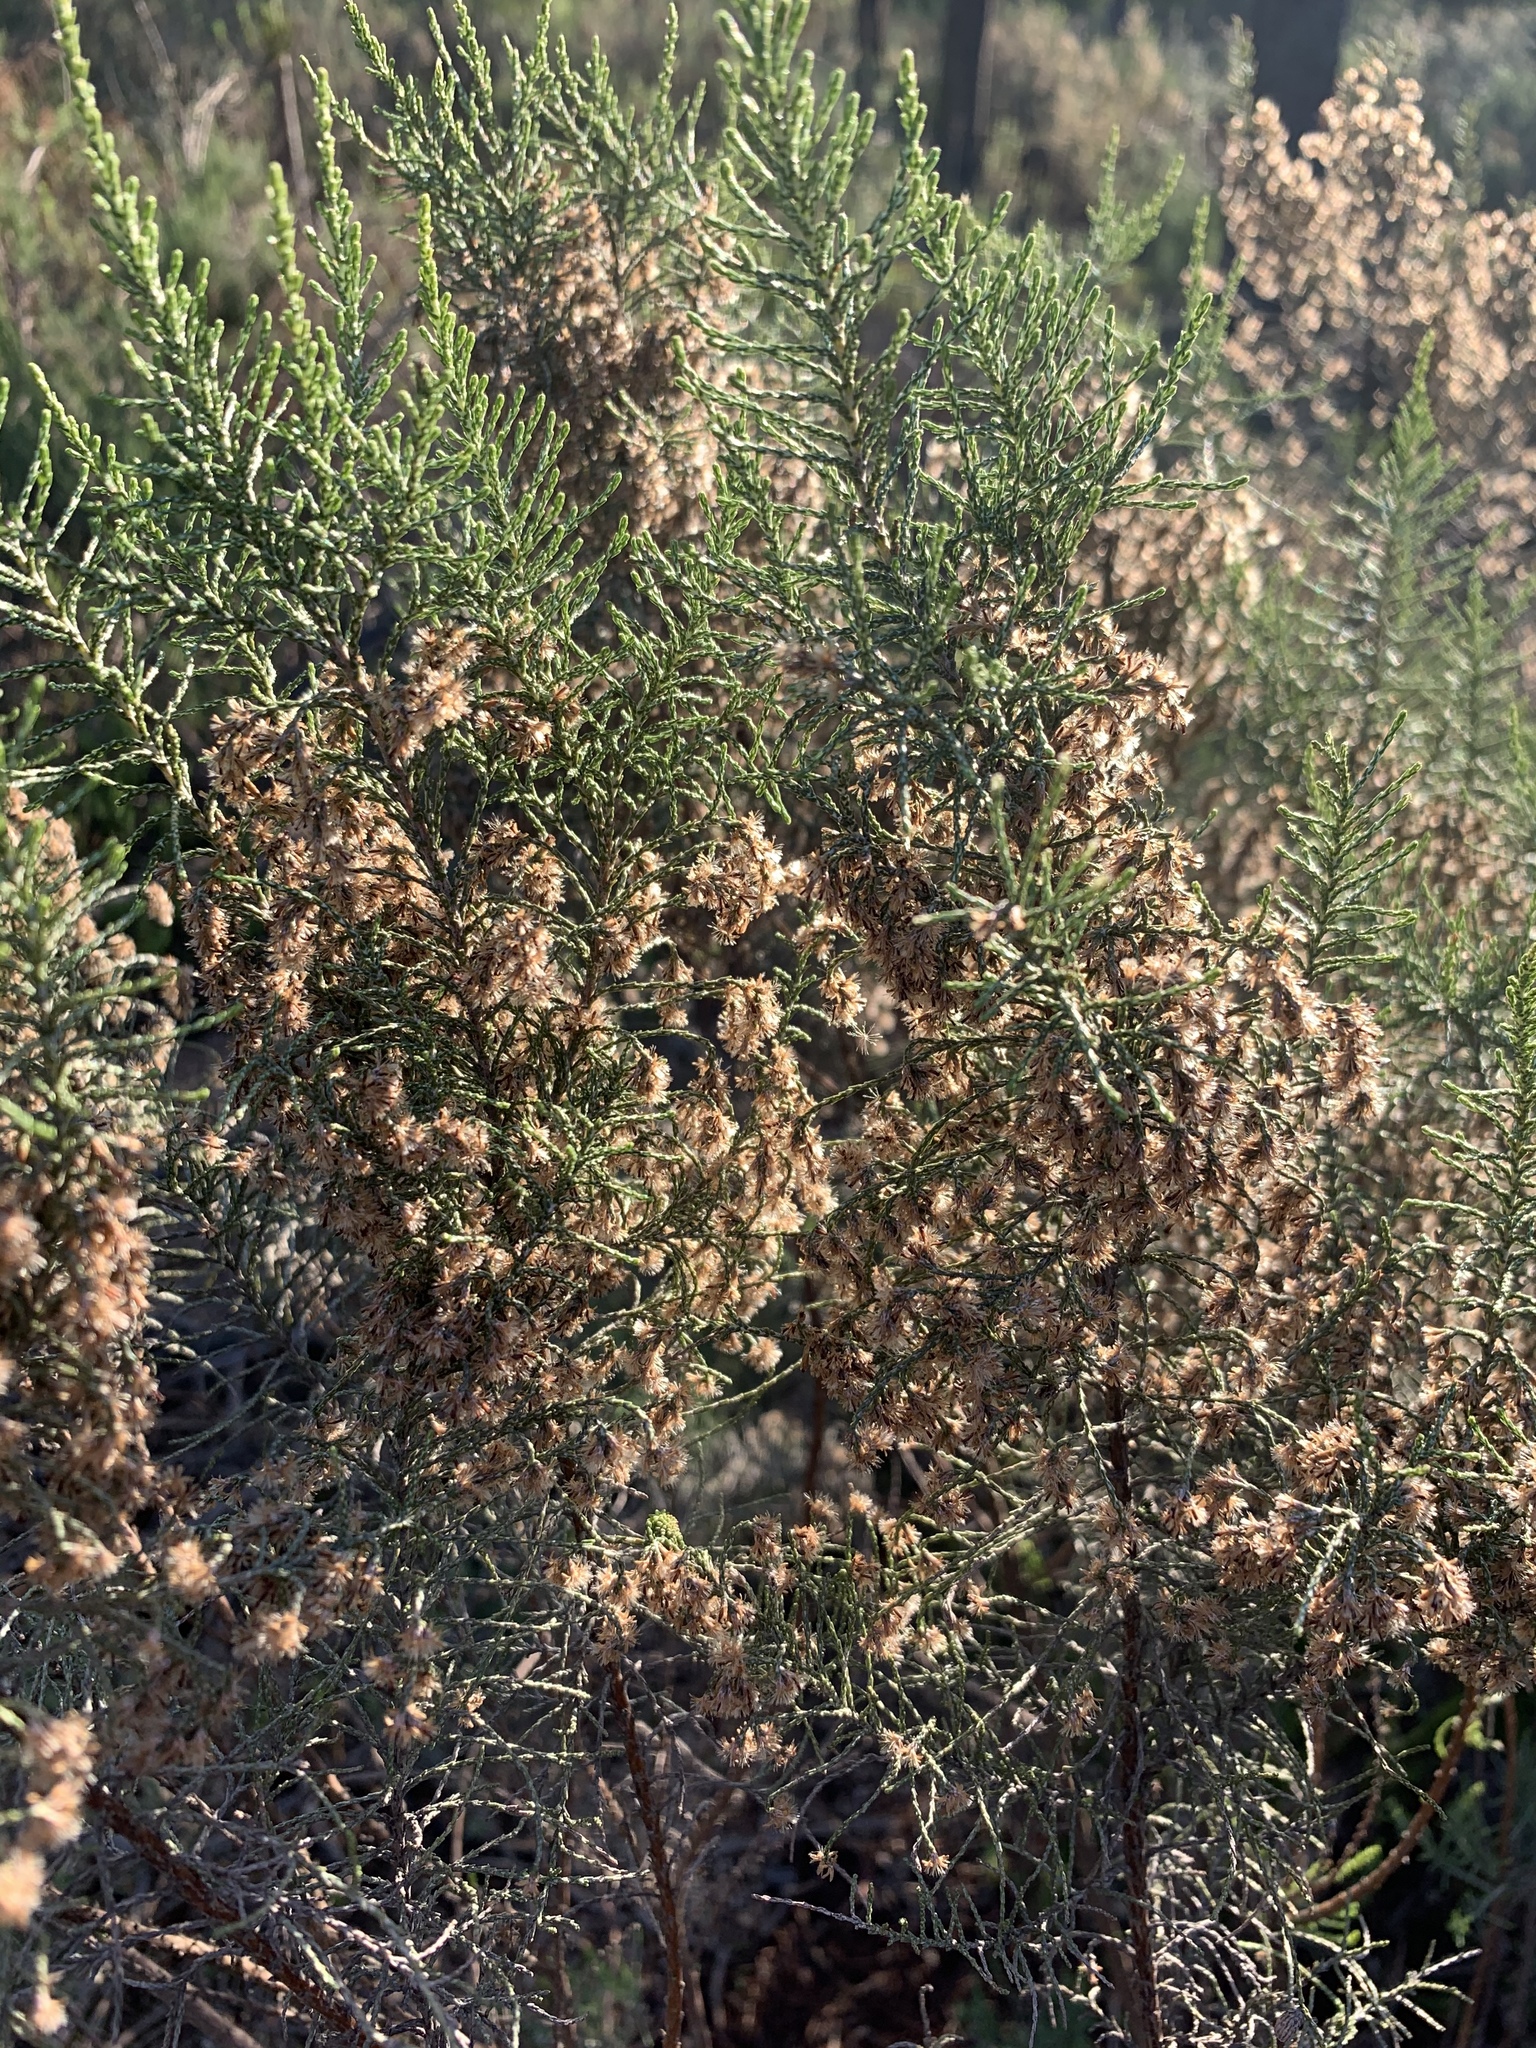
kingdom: Plantae
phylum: Tracheophyta
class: Magnoliopsida
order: Asterales
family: Asteraceae
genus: Dicerothamnus
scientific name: Dicerothamnus rhinocerotis
